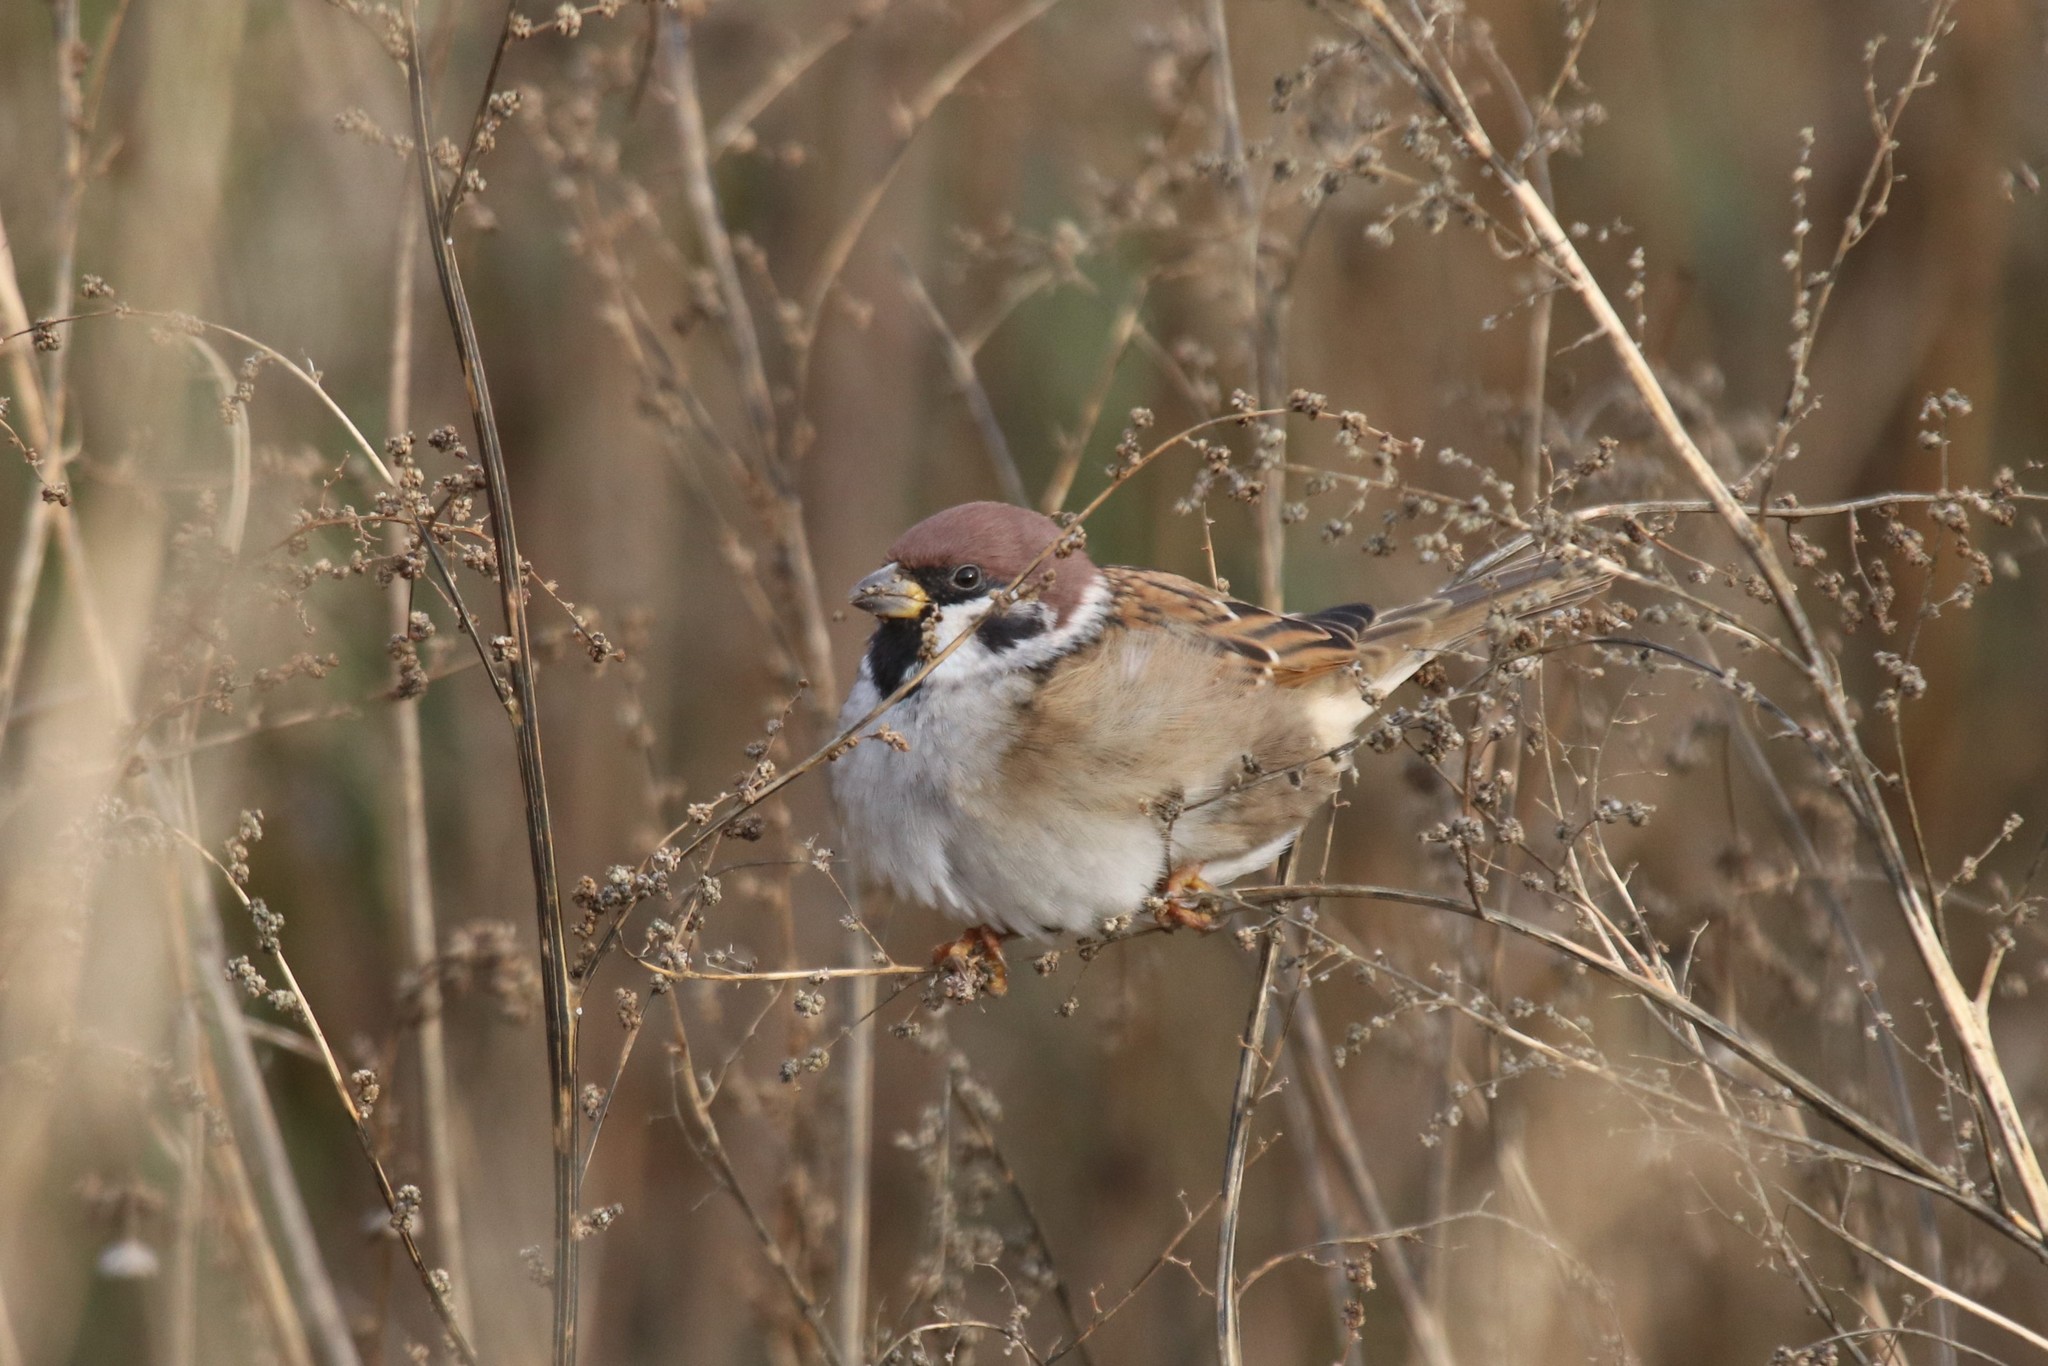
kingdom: Animalia
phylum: Chordata
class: Aves
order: Passeriformes
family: Passeridae
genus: Passer
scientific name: Passer montanus
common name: Eurasian tree sparrow
